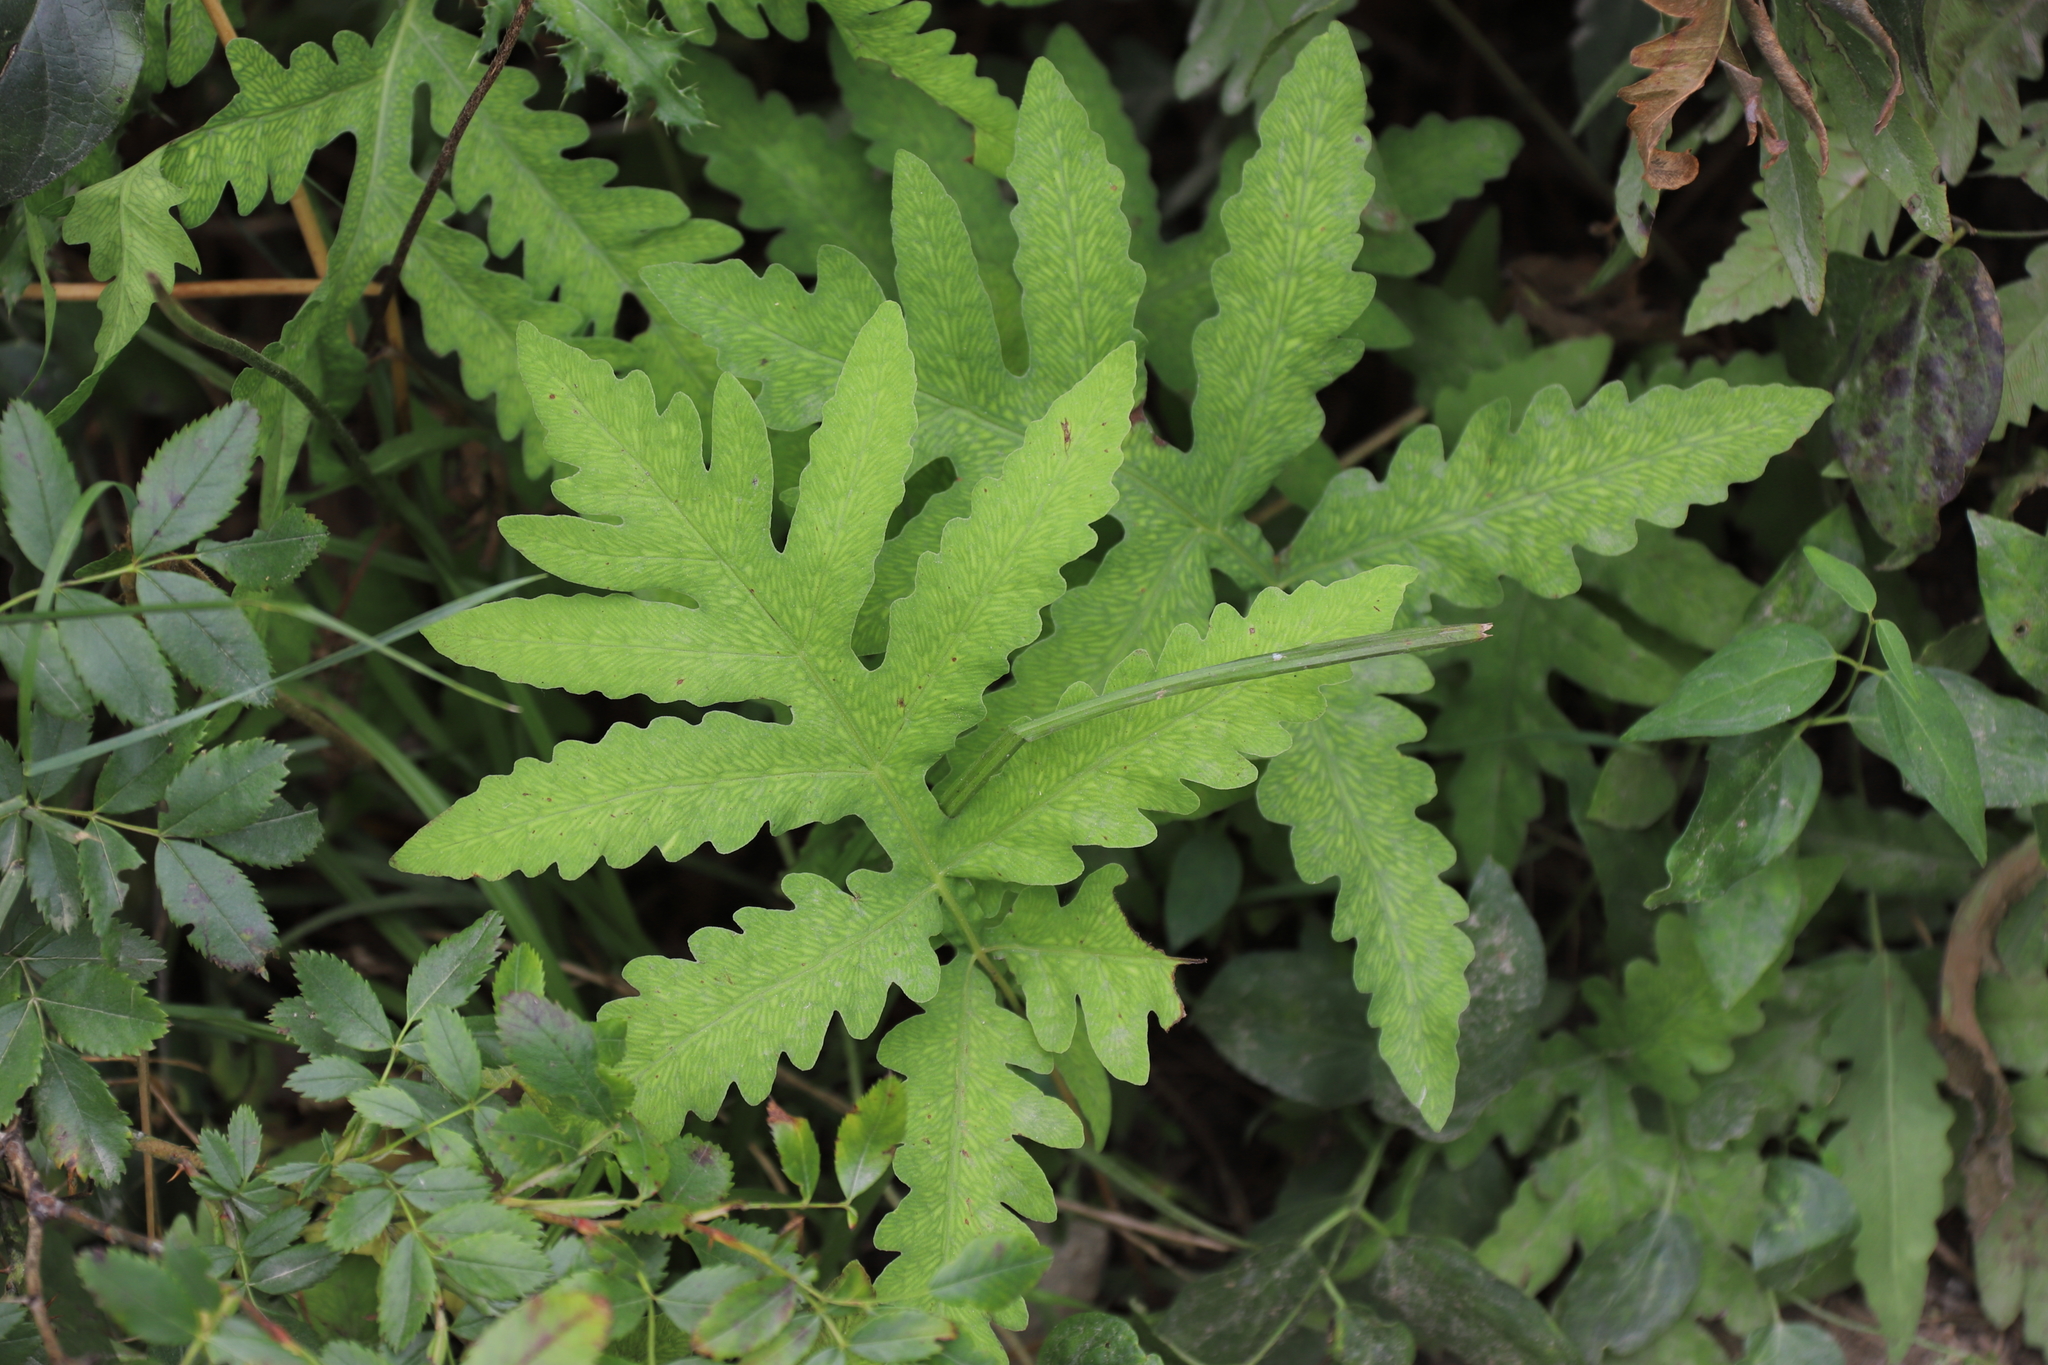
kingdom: Plantae
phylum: Tracheophyta
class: Polypodiopsida
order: Polypodiales
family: Onocleaceae
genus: Onoclea
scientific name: Onoclea sensibilis
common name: Sensitive fern
